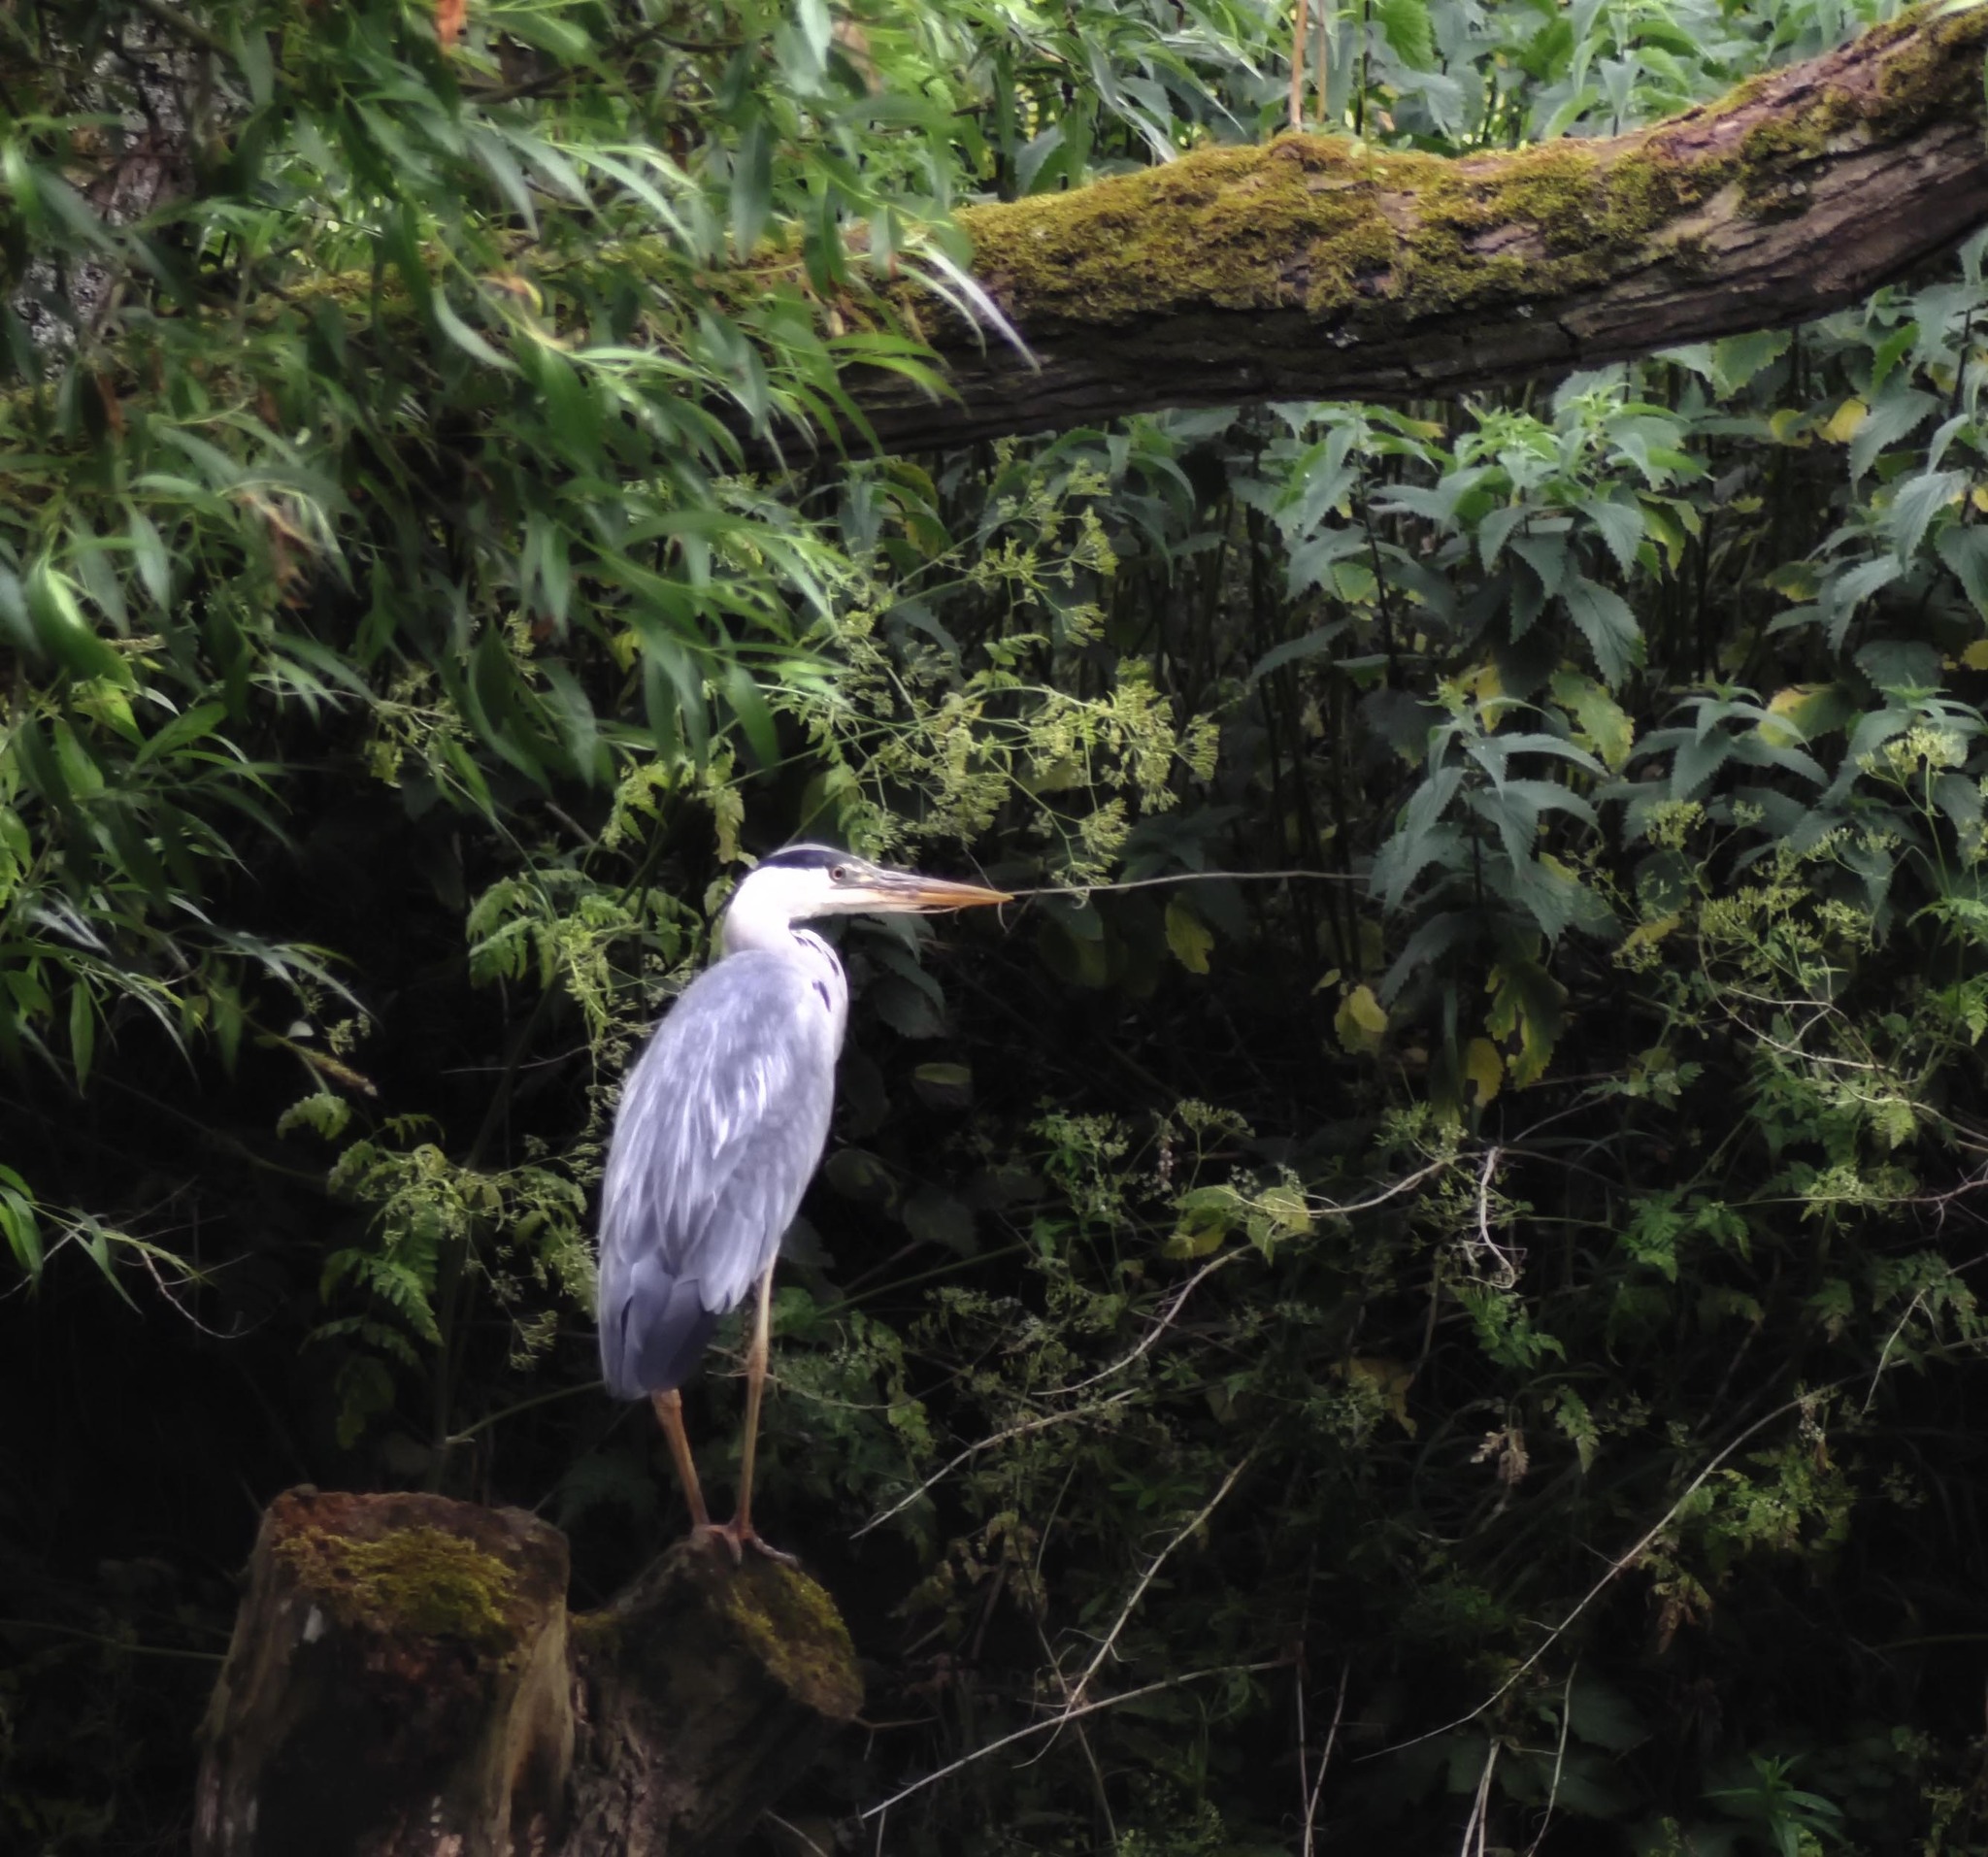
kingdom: Animalia
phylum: Chordata
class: Aves
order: Pelecaniformes
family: Ardeidae
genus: Ardea
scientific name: Ardea cinerea
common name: Grey heron
